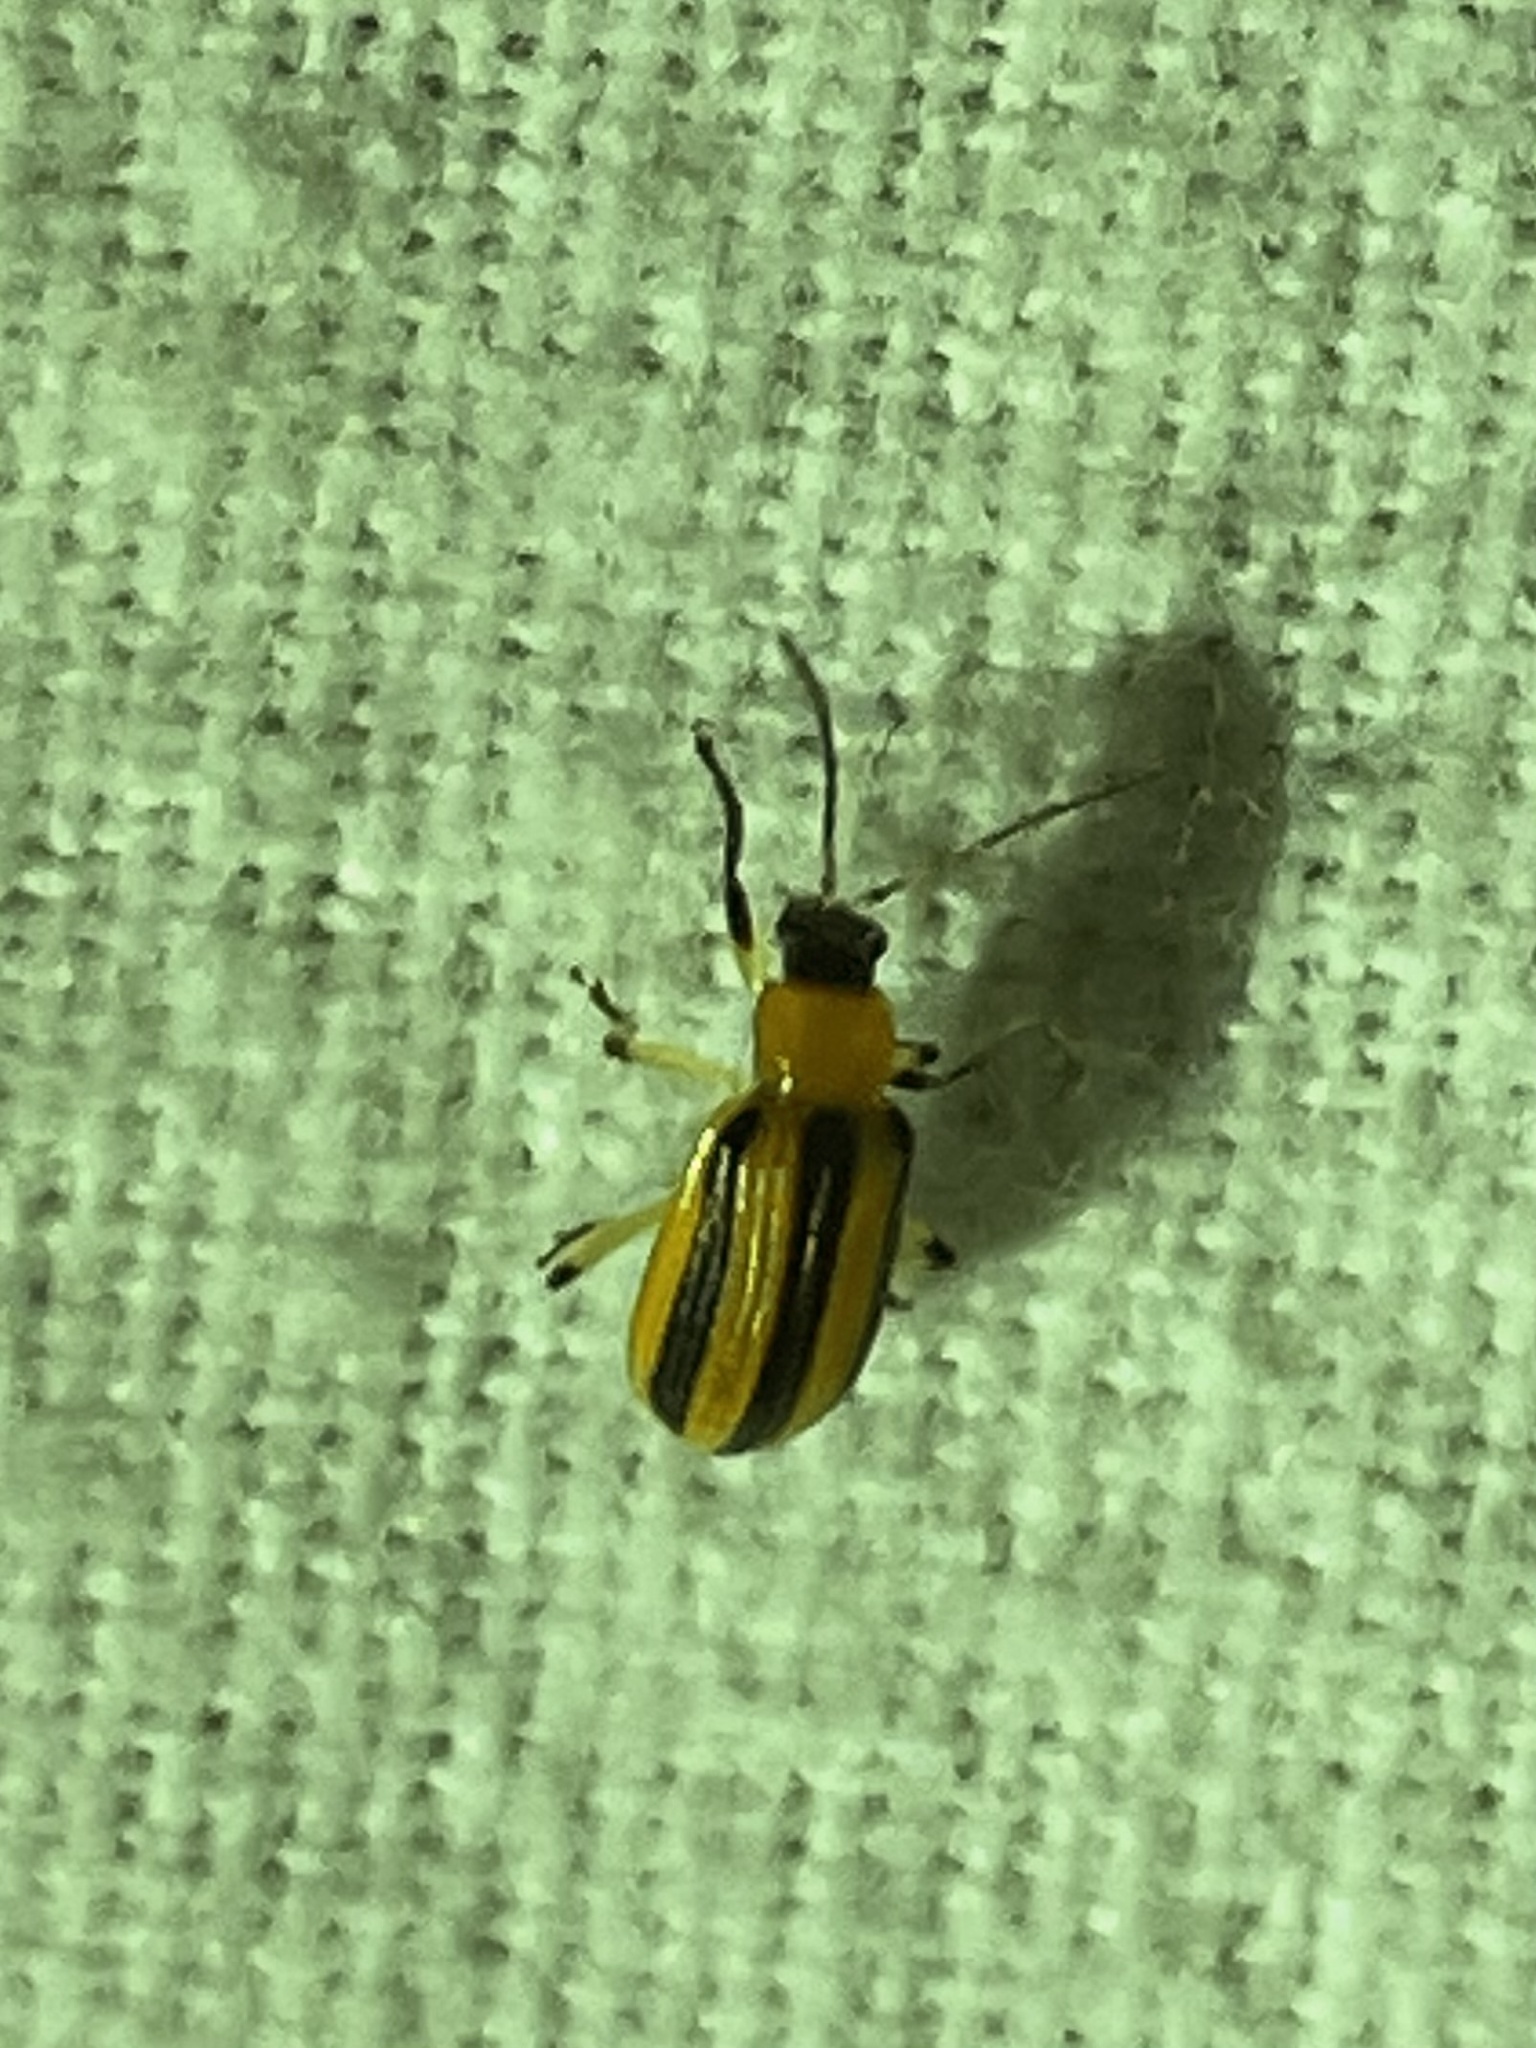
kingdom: Animalia
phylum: Arthropoda
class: Insecta
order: Coleoptera
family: Chrysomelidae
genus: Acalymma
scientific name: Acalymma vittatum
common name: Striped cucumber beetle
